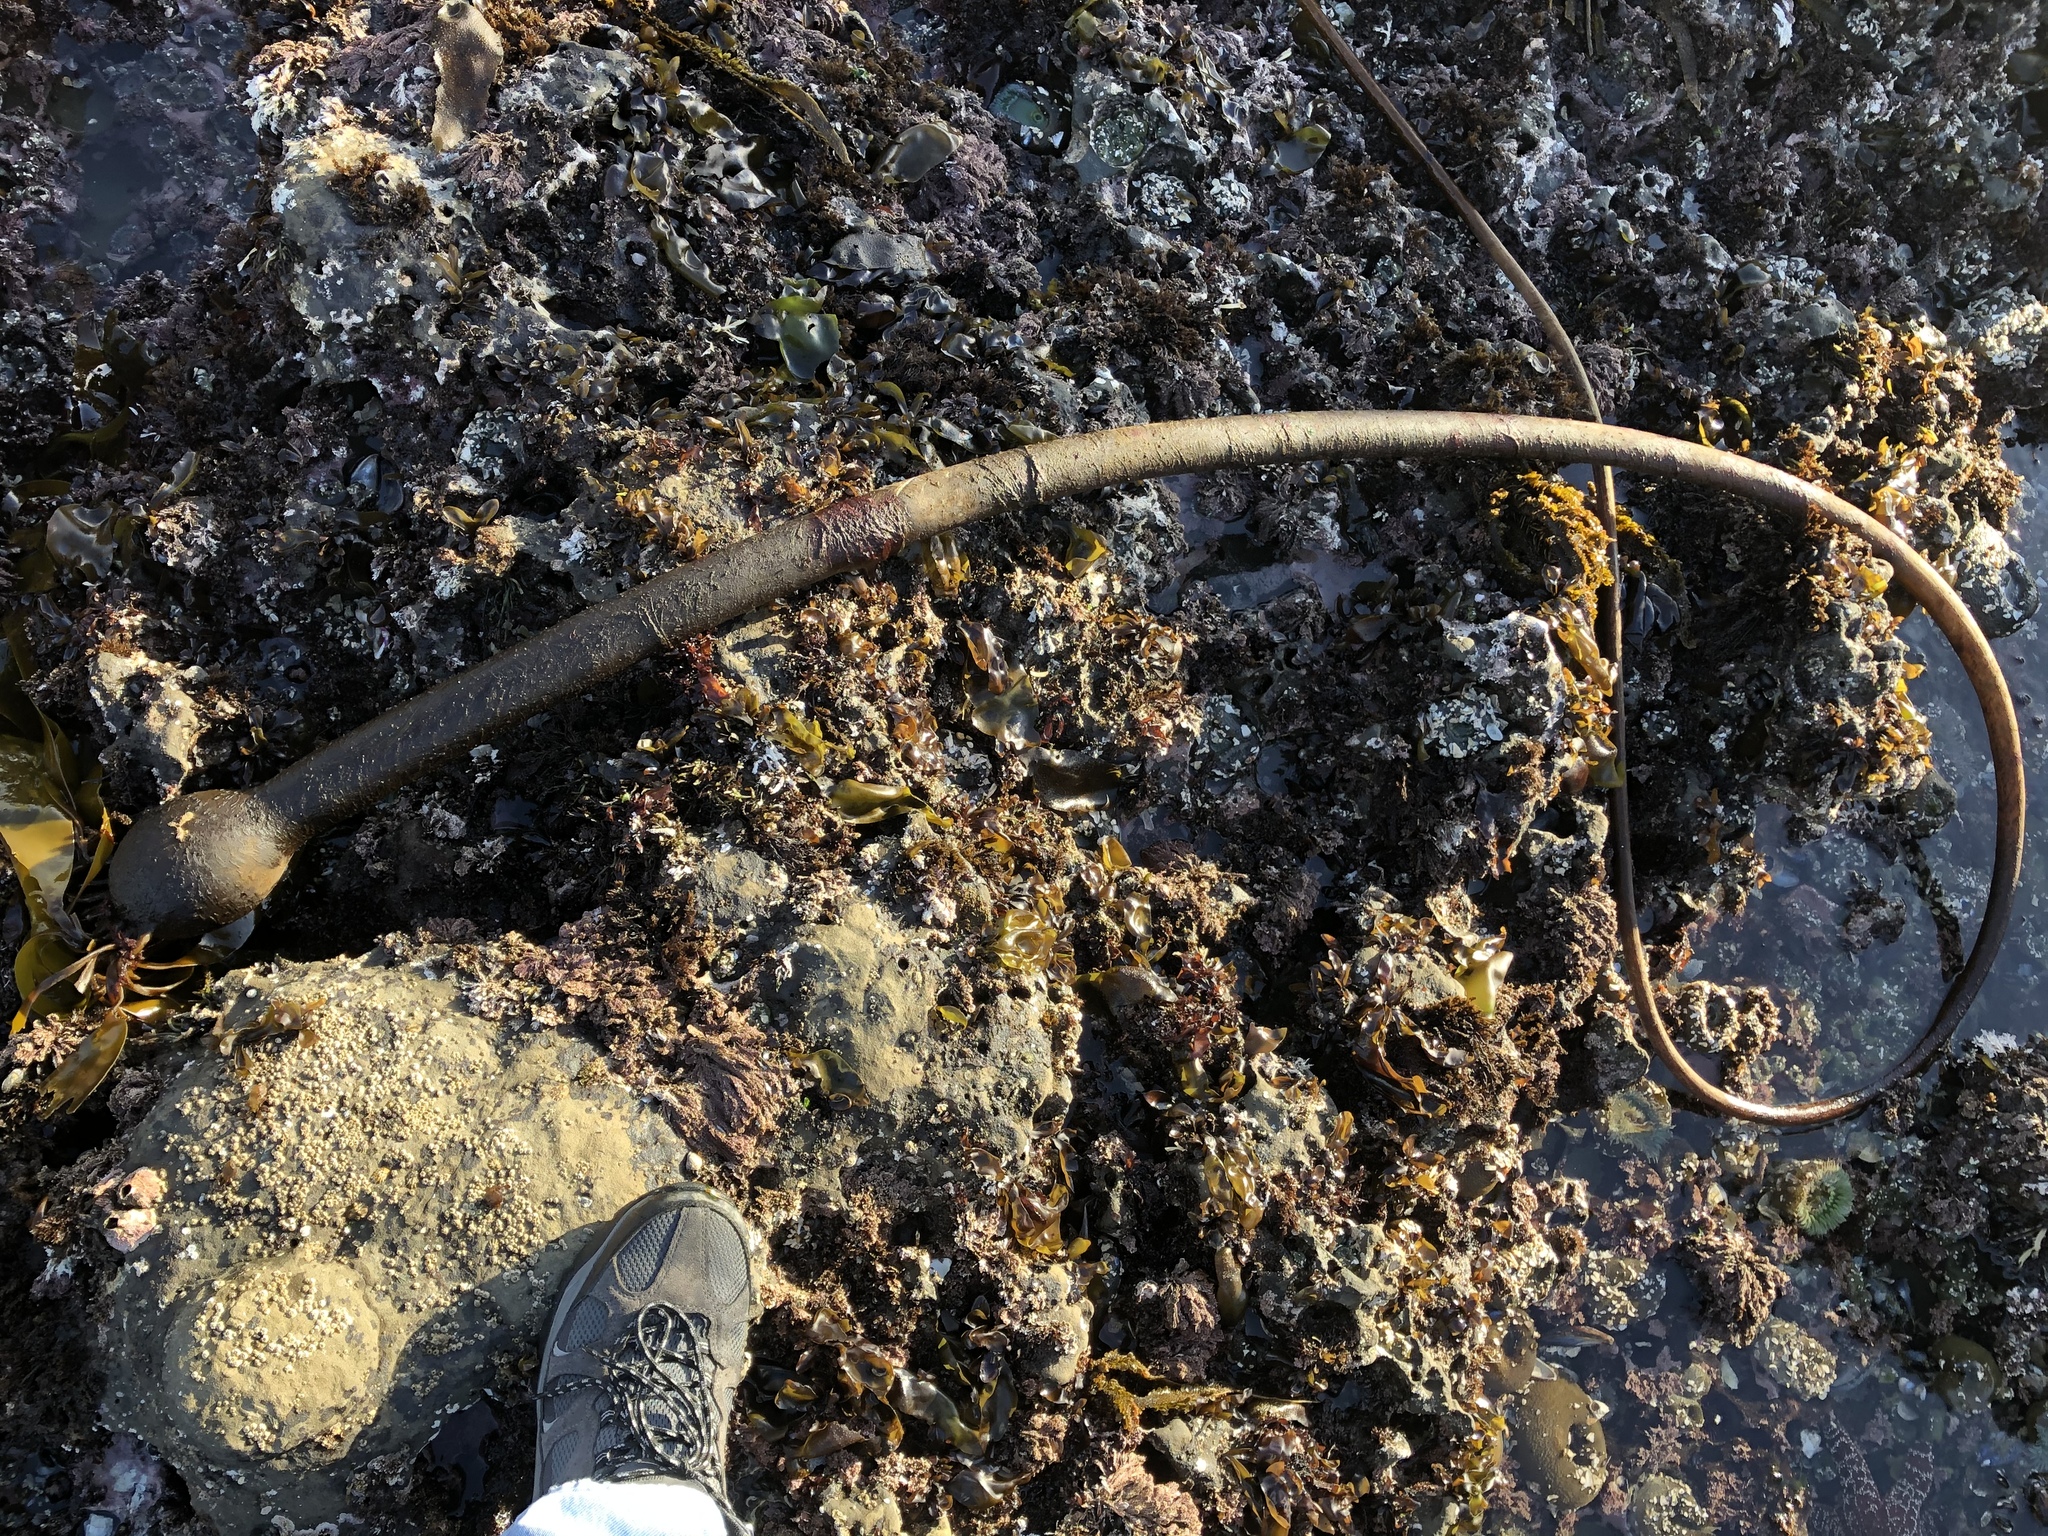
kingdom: Chromista
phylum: Ochrophyta
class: Phaeophyceae
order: Laminariales
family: Laminariaceae
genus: Nereocystis
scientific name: Nereocystis luetkeana
